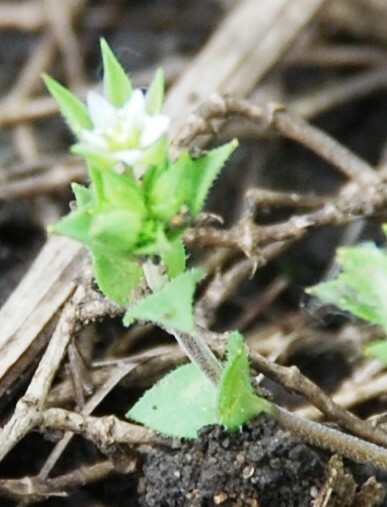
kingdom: Plantae
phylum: Tracheophyta
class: Magnoliopsida
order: Caryophyllales
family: Caryophyllaceae
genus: Arenaria
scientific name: Arenaria serpyllifolia
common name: Thyme-leaved sandwort
